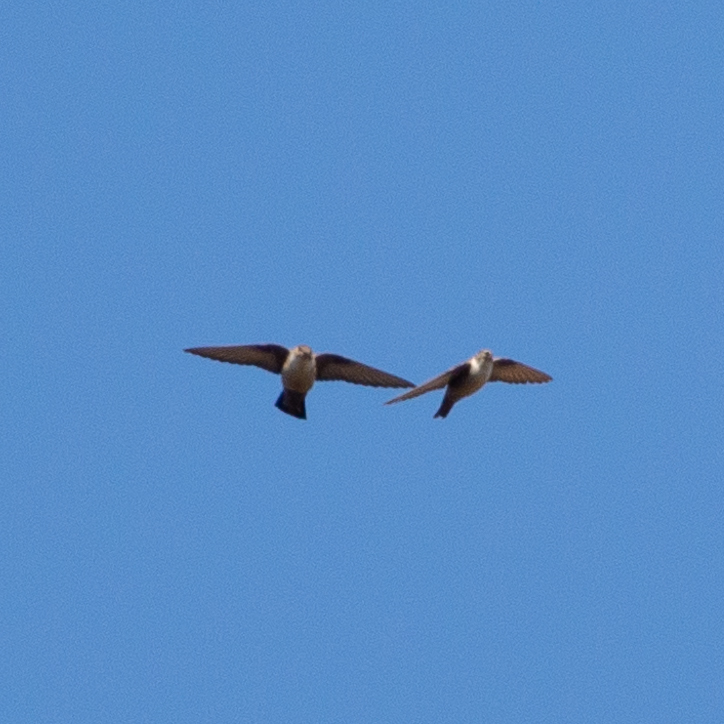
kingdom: Animalia
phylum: Chordata
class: Aves
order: Passeriformes
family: Hirundinidae
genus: Ptyonoprogne
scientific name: Ptyonoprogne rupestris
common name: Eurasian crag martin
